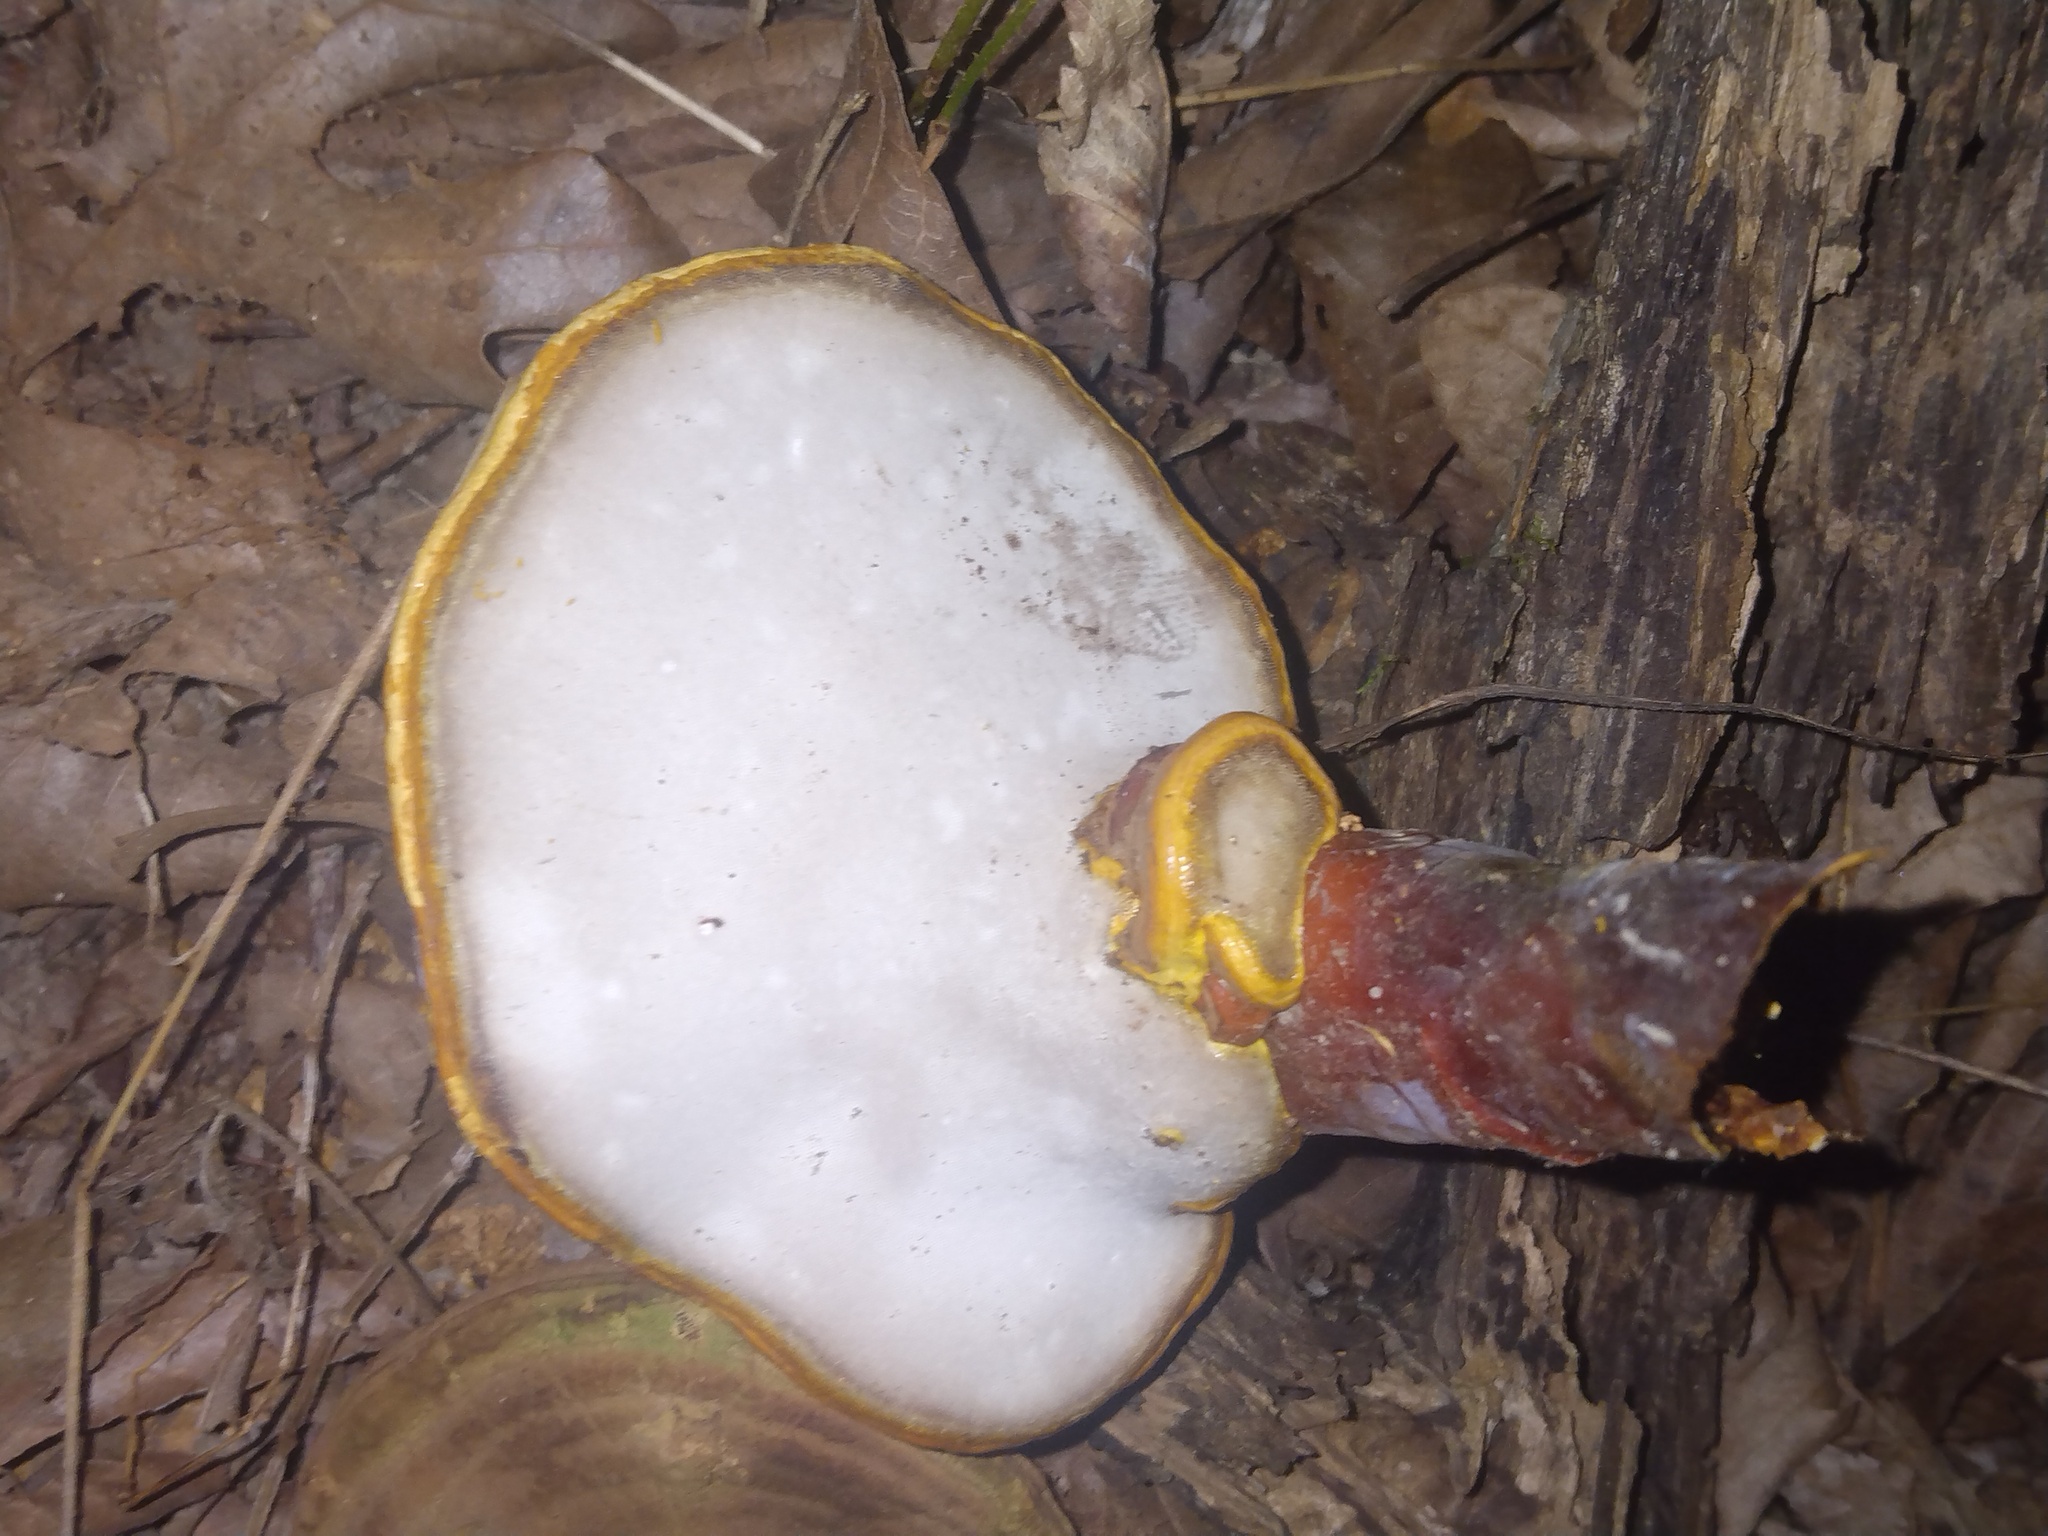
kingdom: Fungi
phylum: Basidiomycota
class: Agaricomycetes
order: Polyporales
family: Polyporaceae
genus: Ganoderma
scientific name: Ganoderma curtisii
